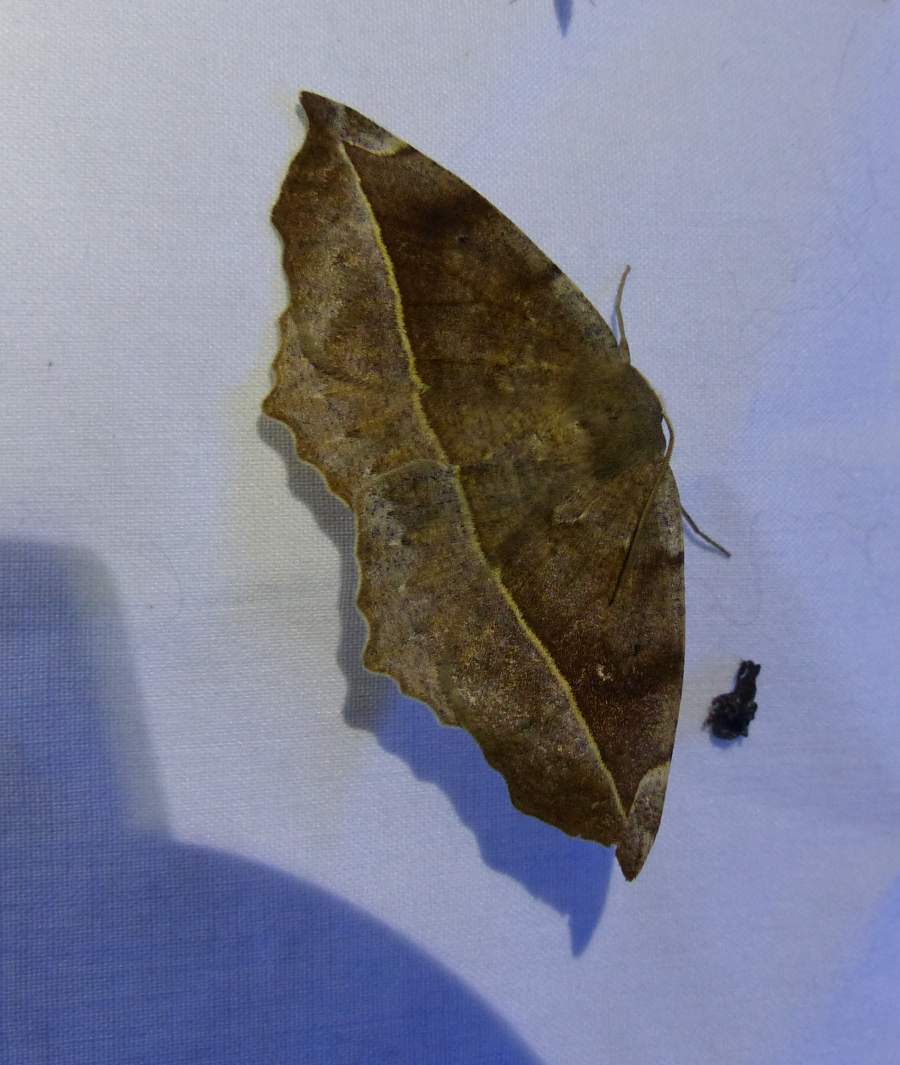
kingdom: Animalia
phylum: Arthropoda
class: Insecta
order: Lepidoptera
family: Geometridae
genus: Eutrapela
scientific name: Eutrapela clemataria
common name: Curved-toothed geometer
